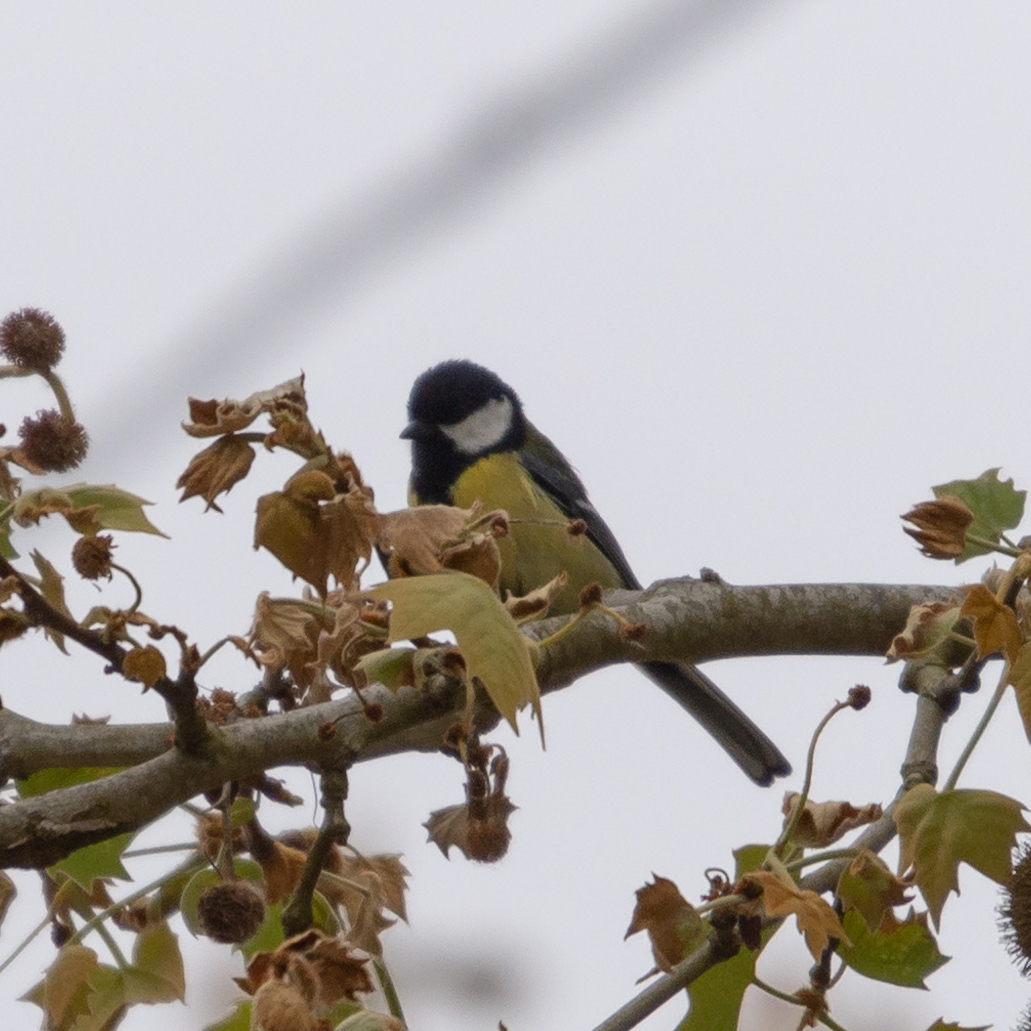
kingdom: Animalia
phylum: Chordata
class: Aves
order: Passeriformes
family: Paridae
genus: Parus
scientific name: Parus major
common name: Great tit
